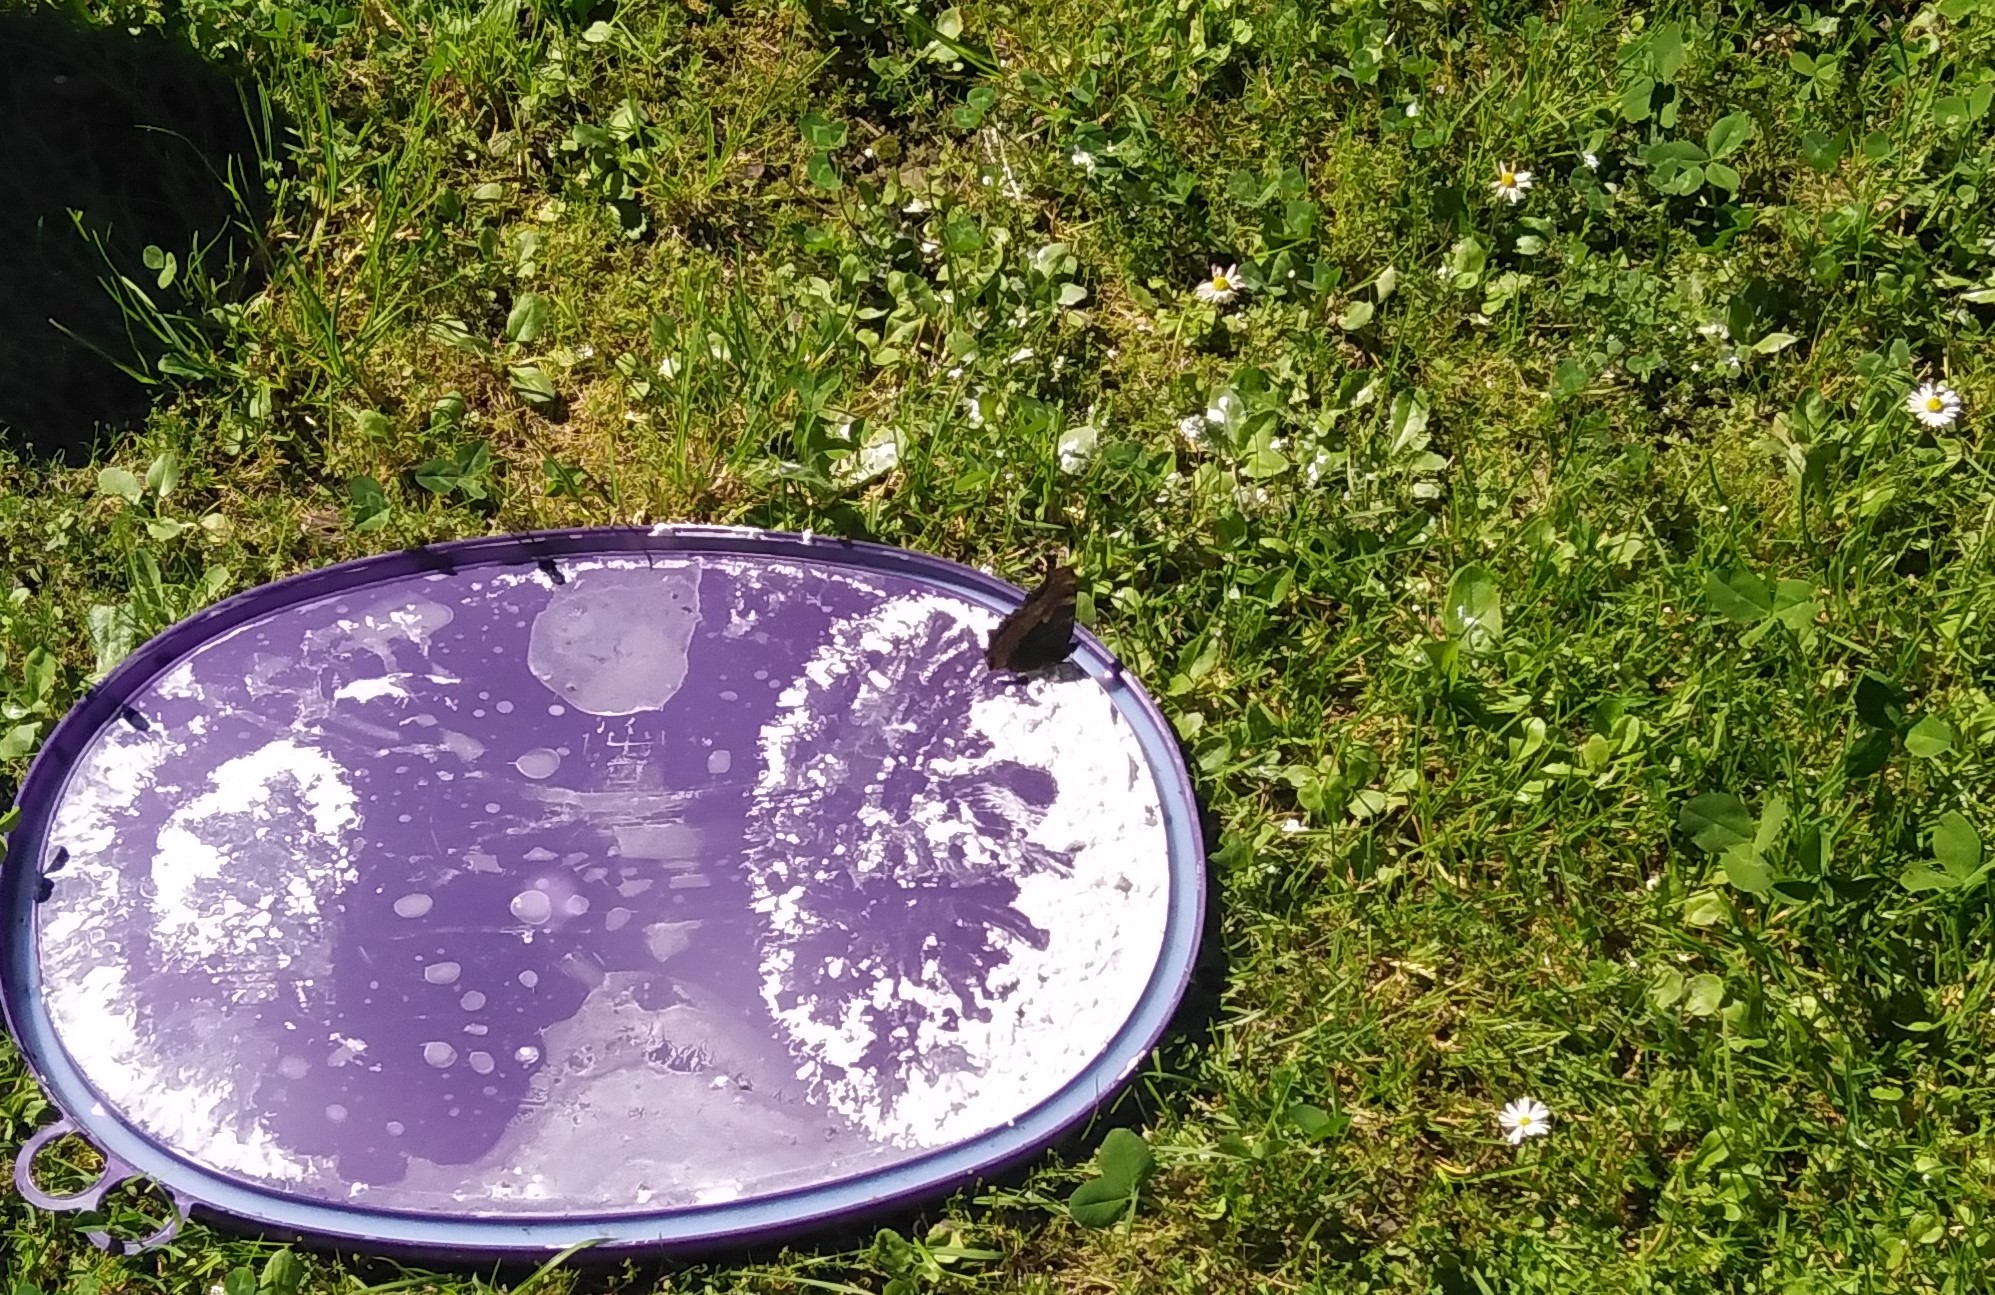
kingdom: Animalia
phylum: Arthropoda
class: Insecta
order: Lepidoptera
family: Nymphalidae
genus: Nymphalis
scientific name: Nymphalis polychloros
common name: Large tortoiseshell
